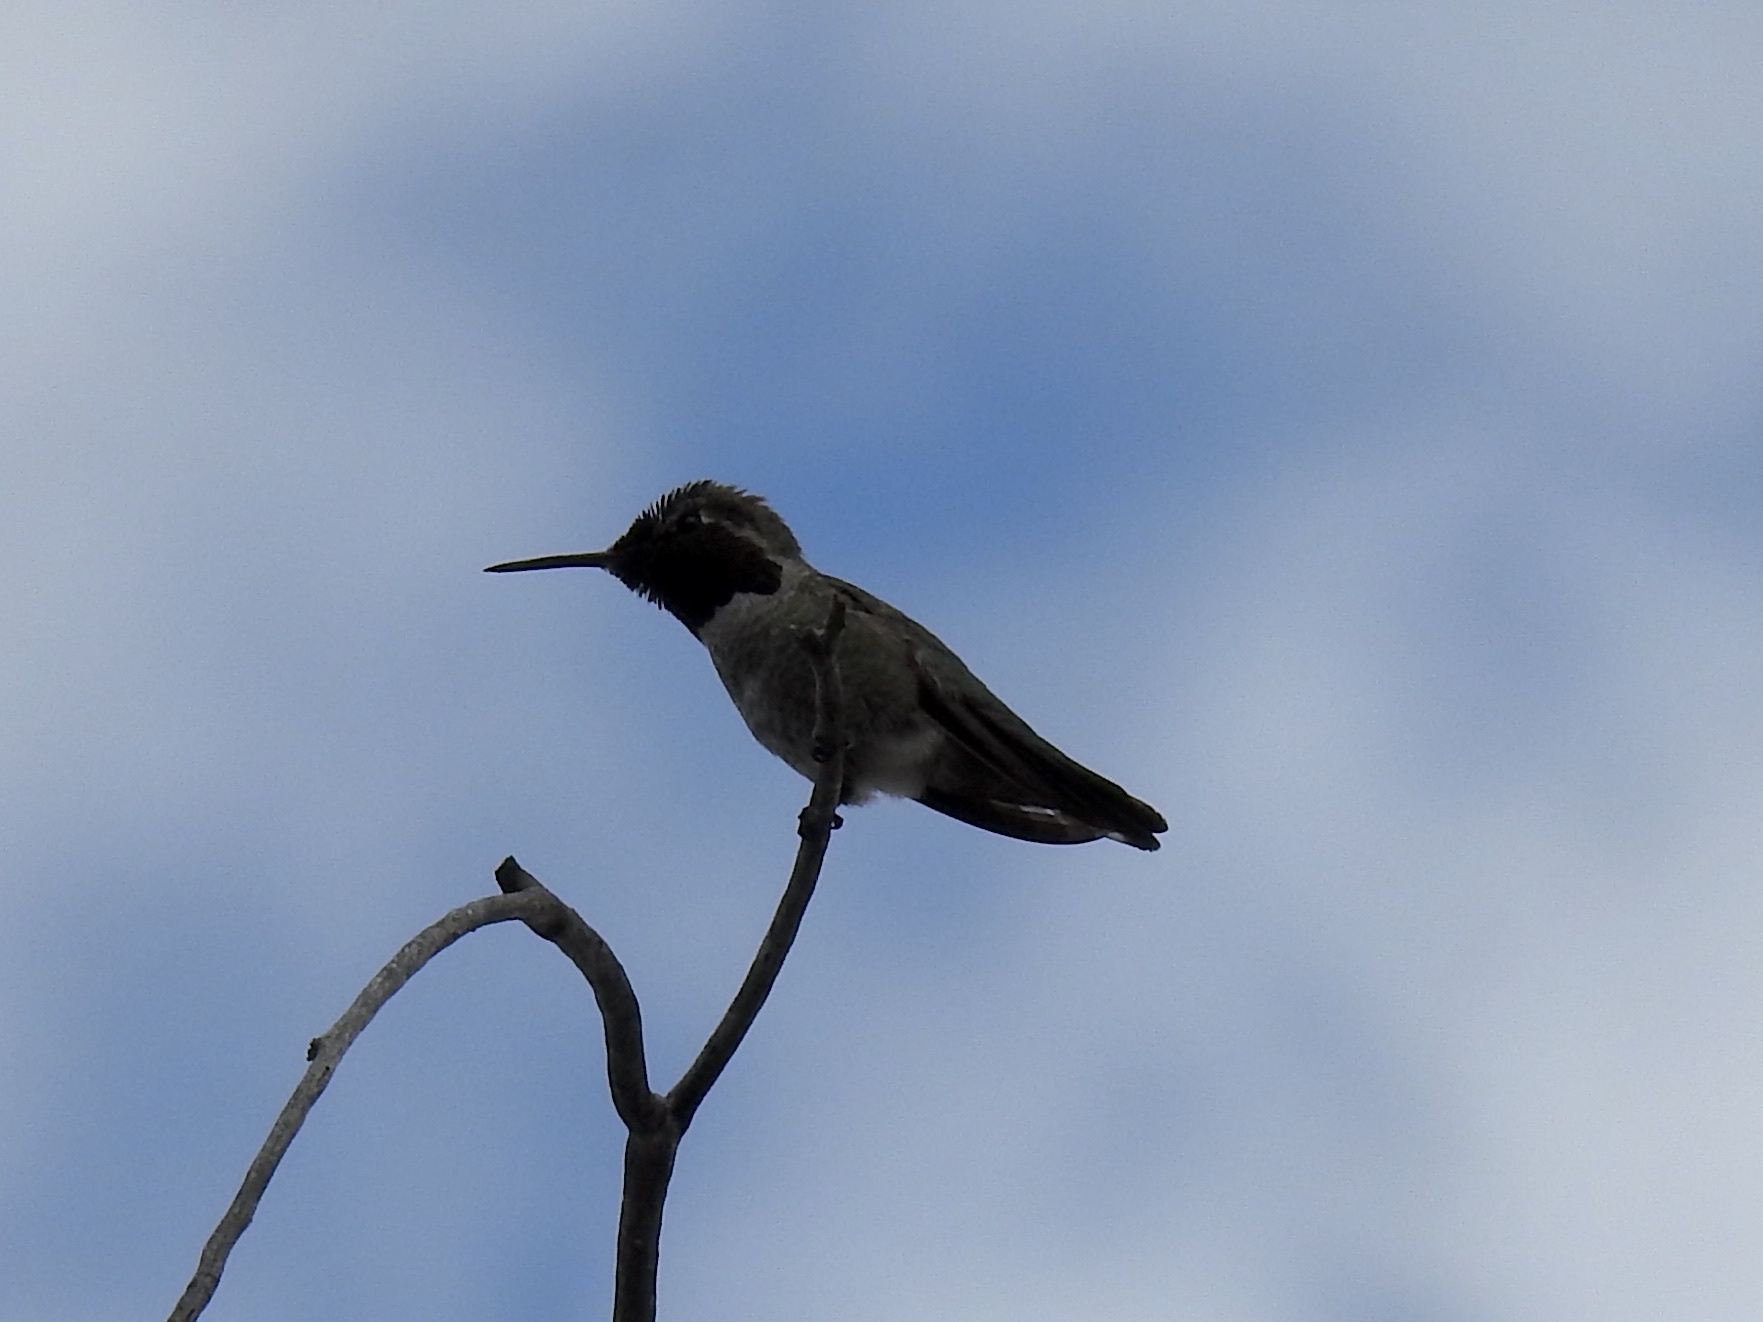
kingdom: Animalia
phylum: Chordata
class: Aves
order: Apodiformes
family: Trochilidae
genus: Calypte
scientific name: Calypte anna
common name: Anna's hummingbird
